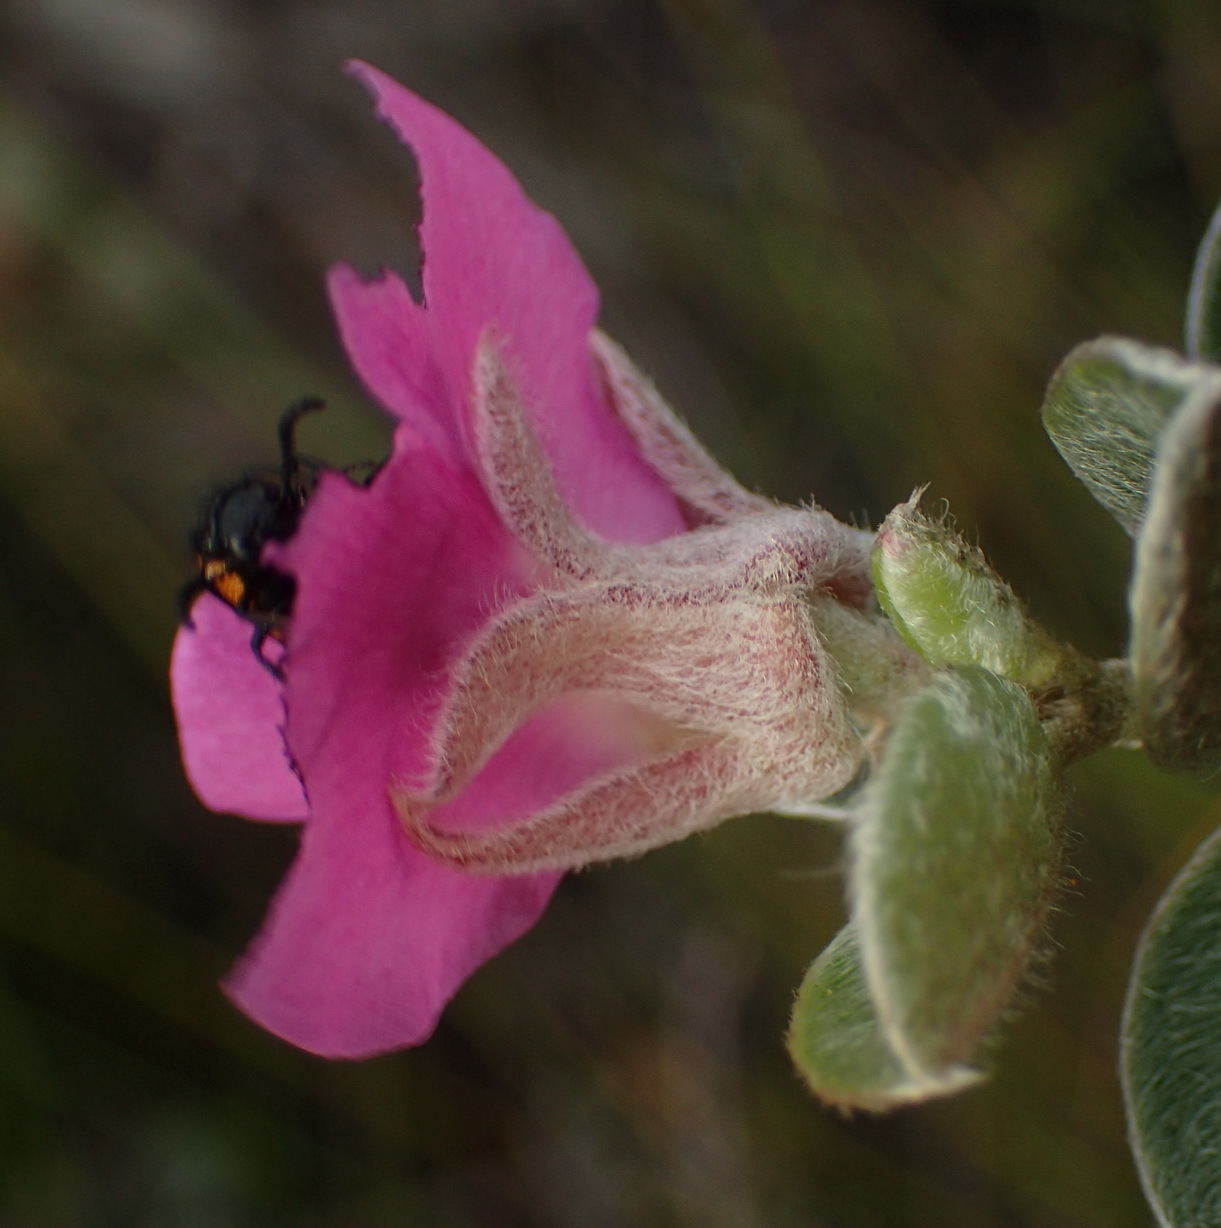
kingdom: Plantae
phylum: Tracheophyta
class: Magnoliopsida
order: Fabales
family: Fabaceae
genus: Podalyria
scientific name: Podalyria burchellii
